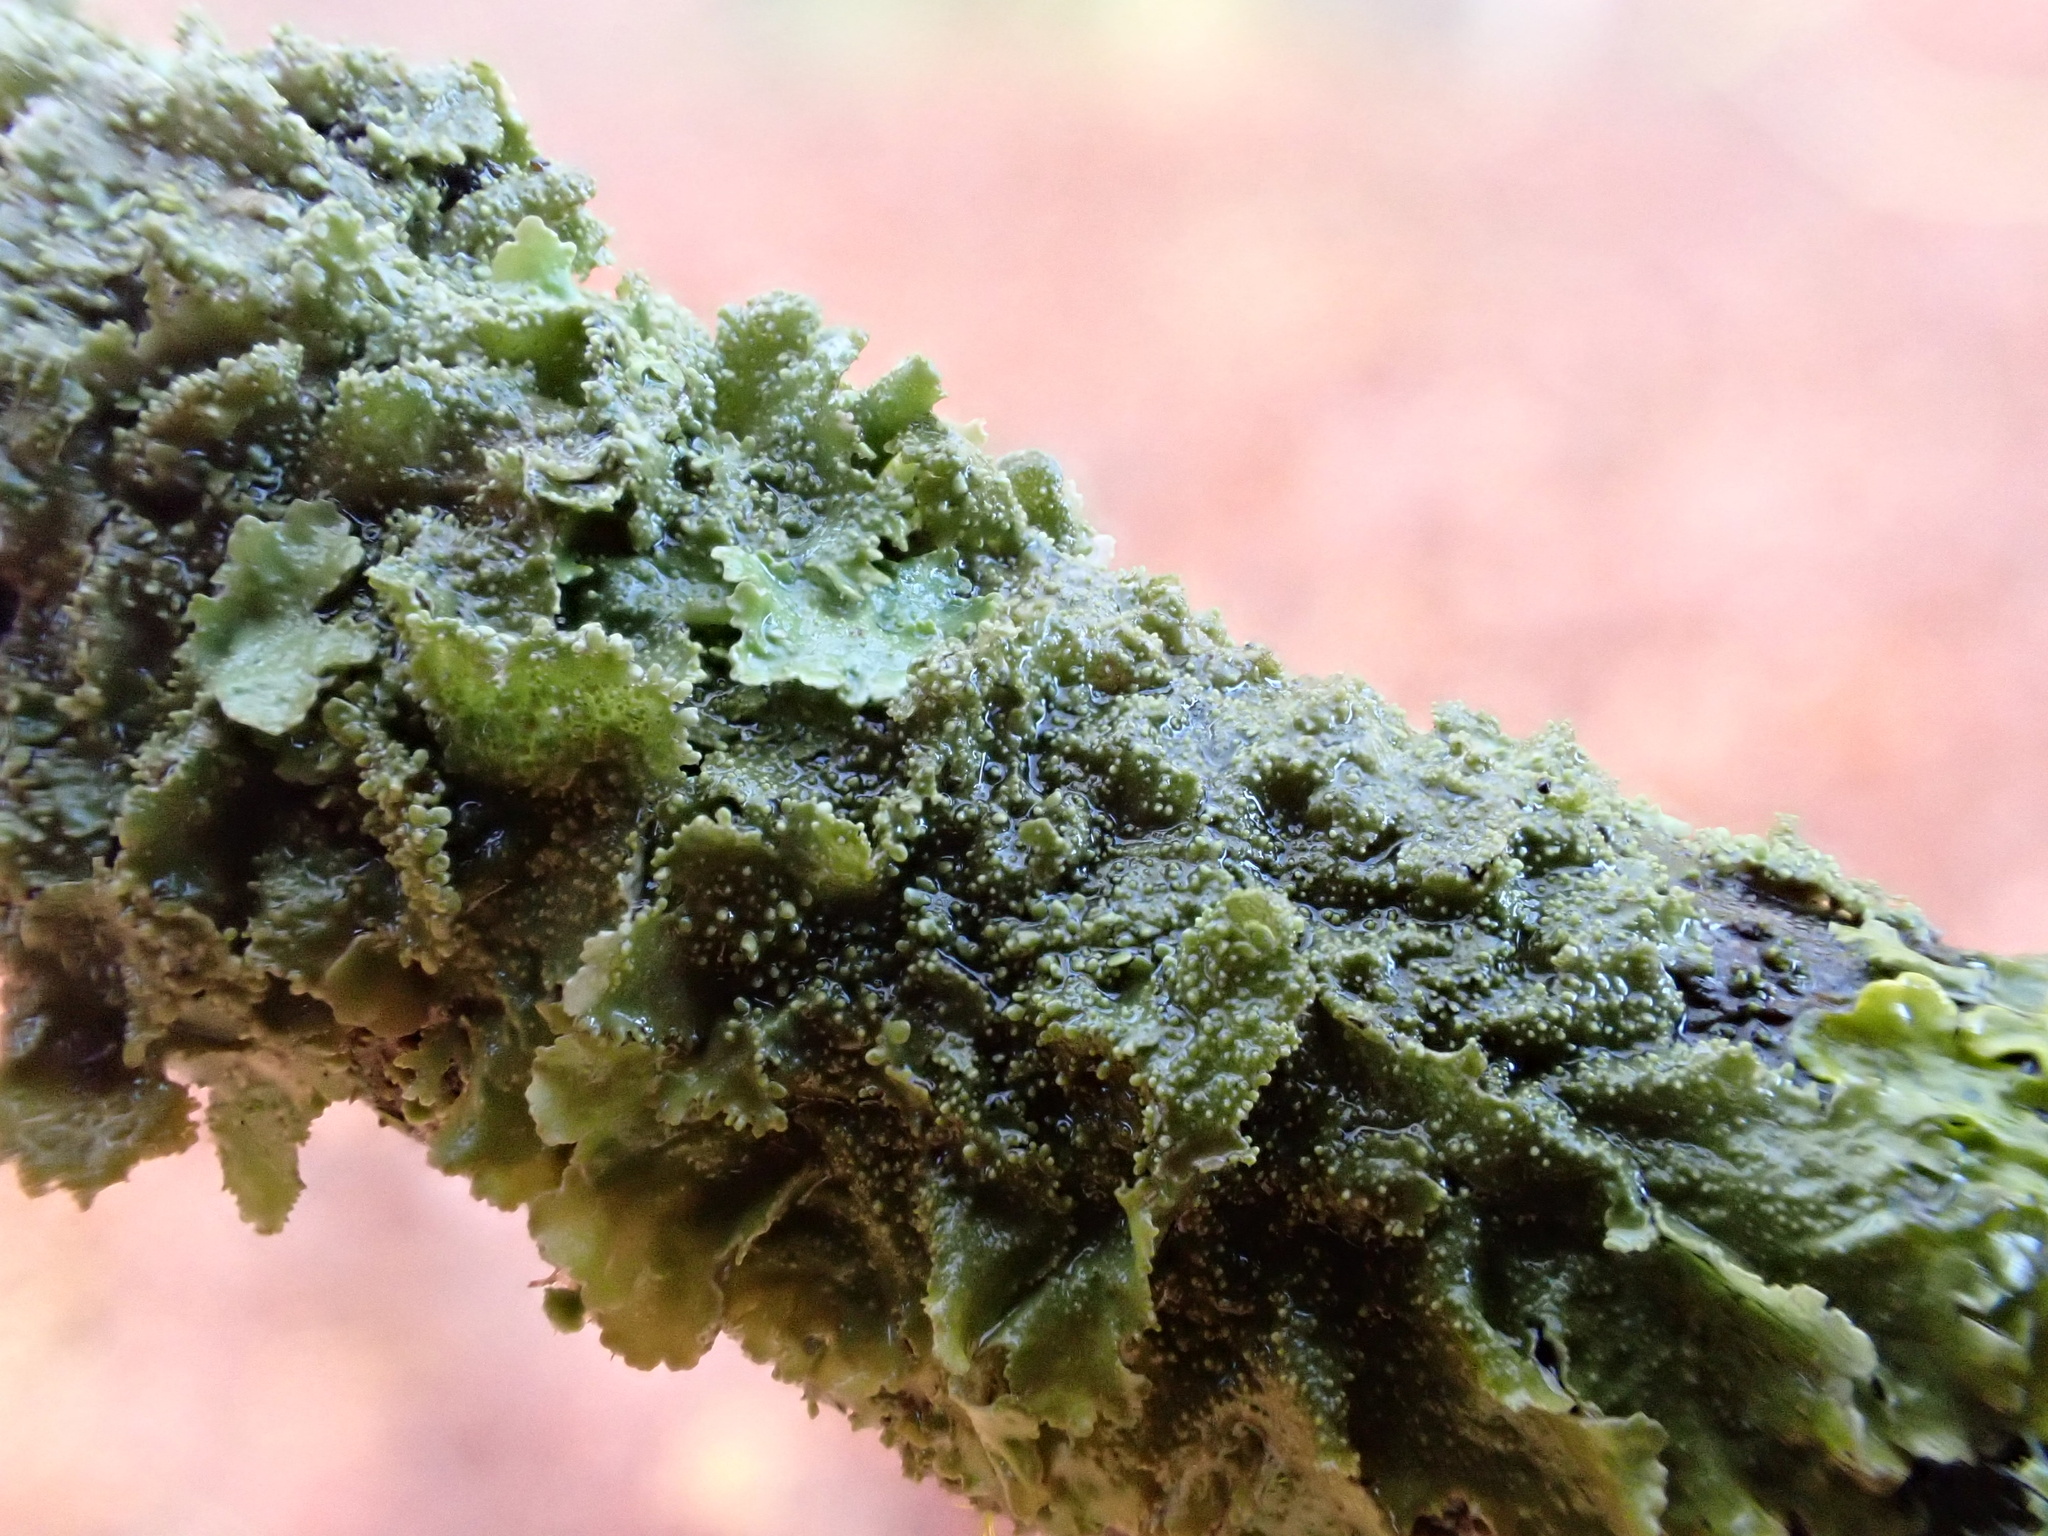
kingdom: Fungi
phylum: Ascomycota
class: Lecanoromycetes
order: Lecanorales
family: Parmeliaceae
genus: Melanohalea
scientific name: Melanohalea exasperatula
